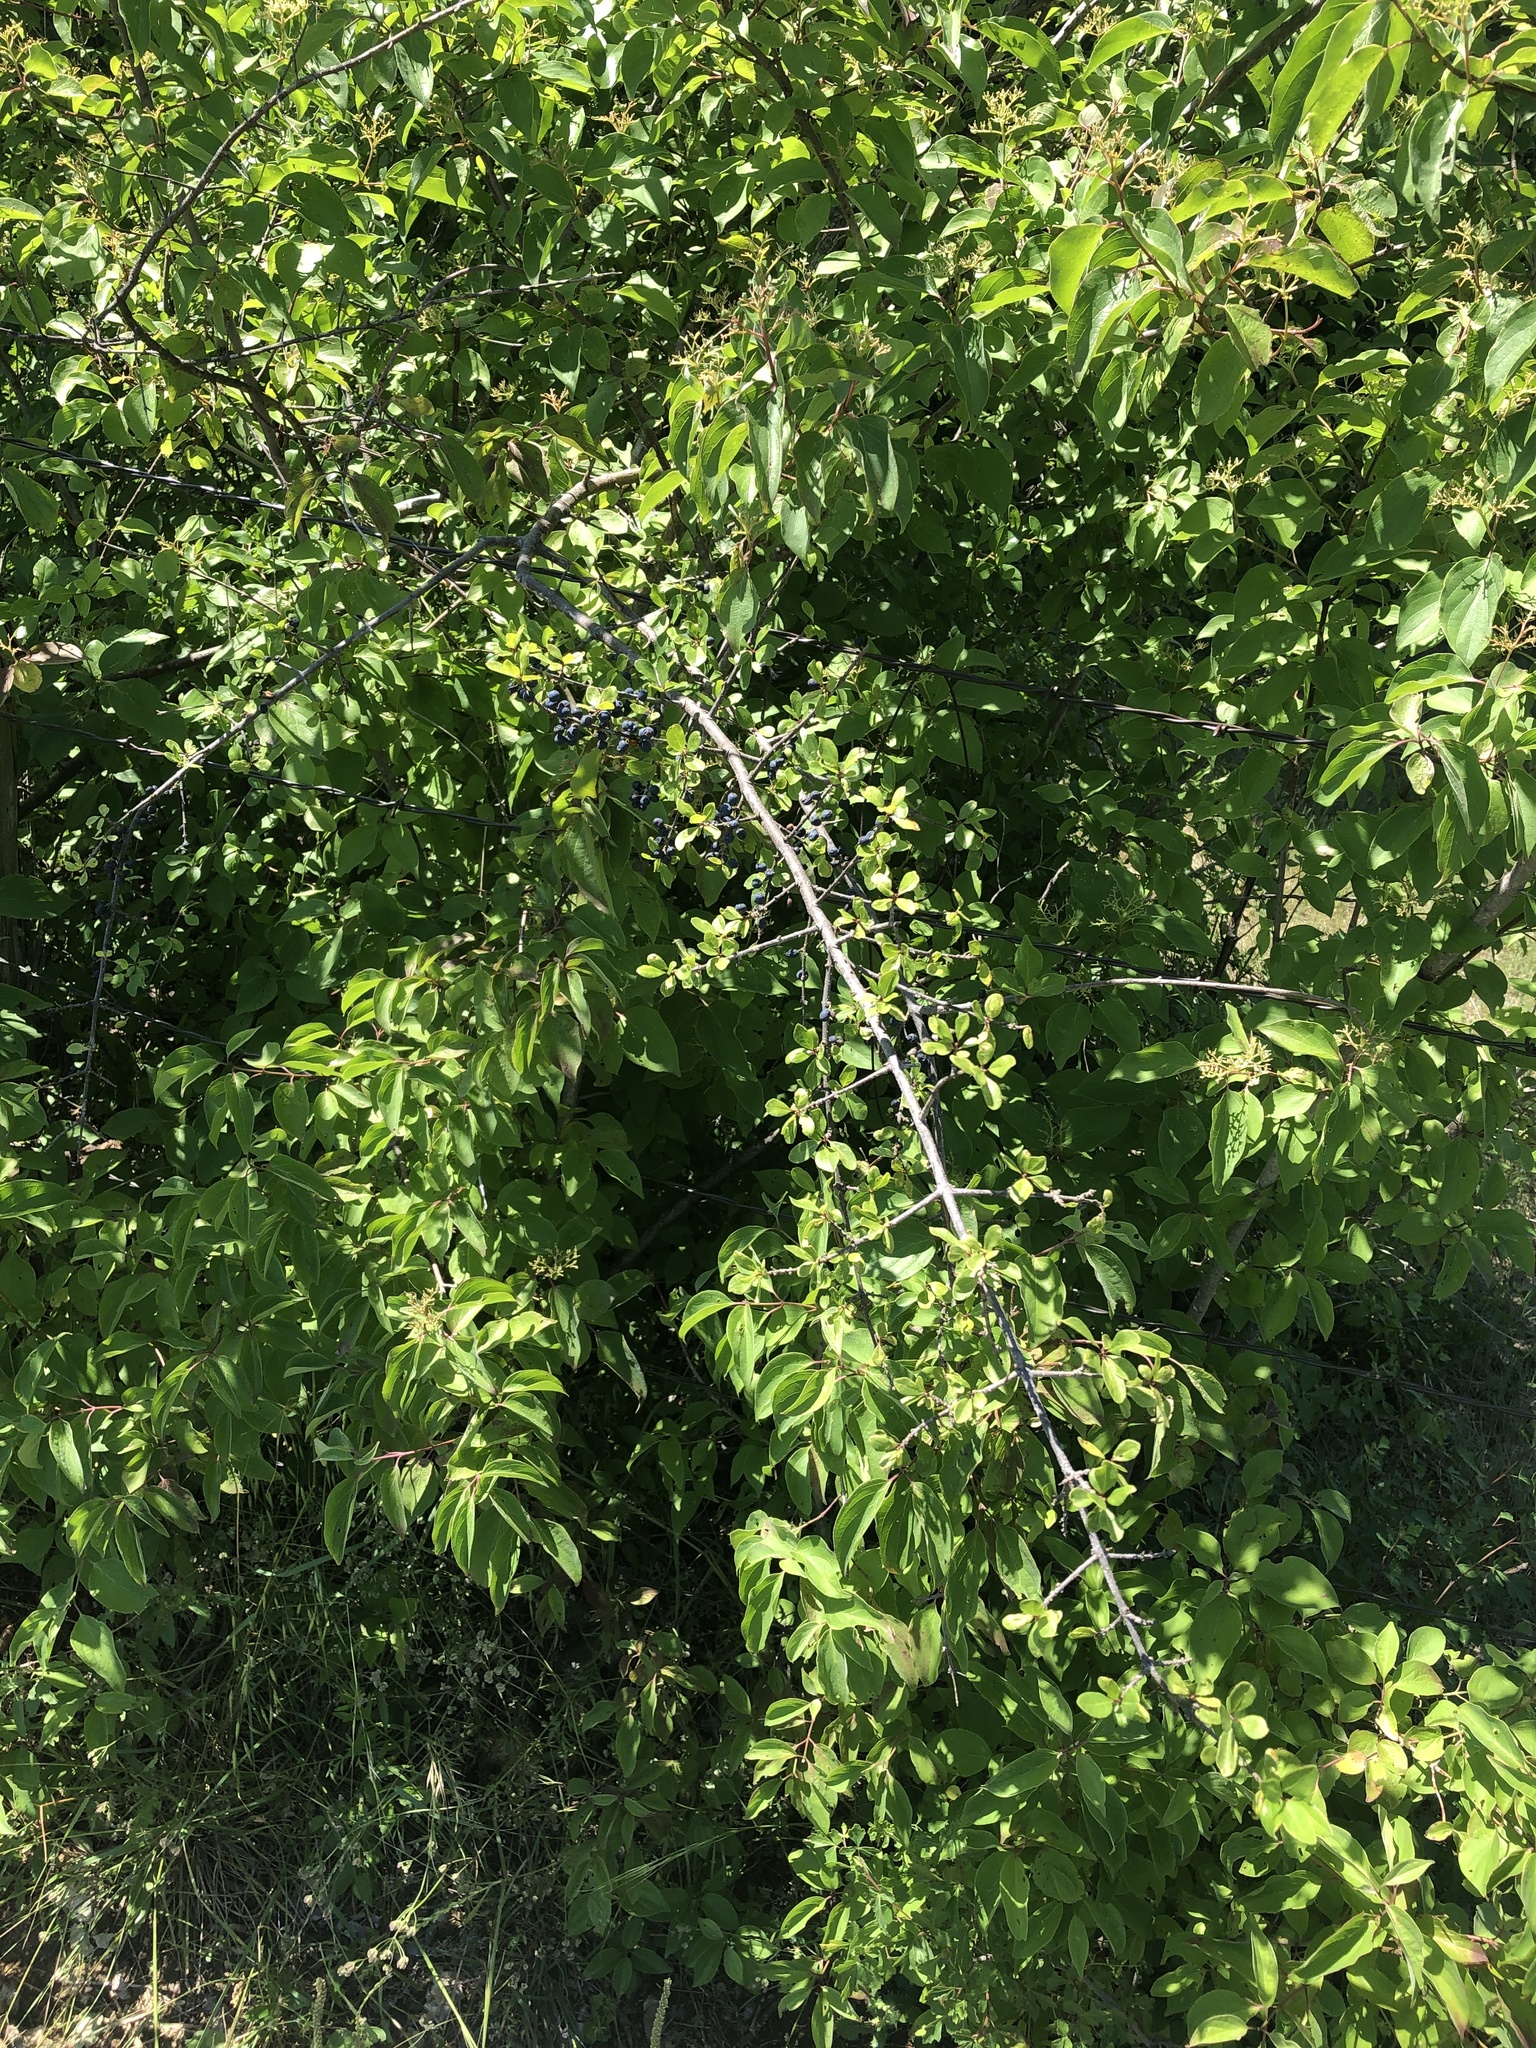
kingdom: Plantae
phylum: Tracheophyta
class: Magnoliopsida
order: Lamiales
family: Oleaceae
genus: Forestiera
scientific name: Forestiera pubescens
